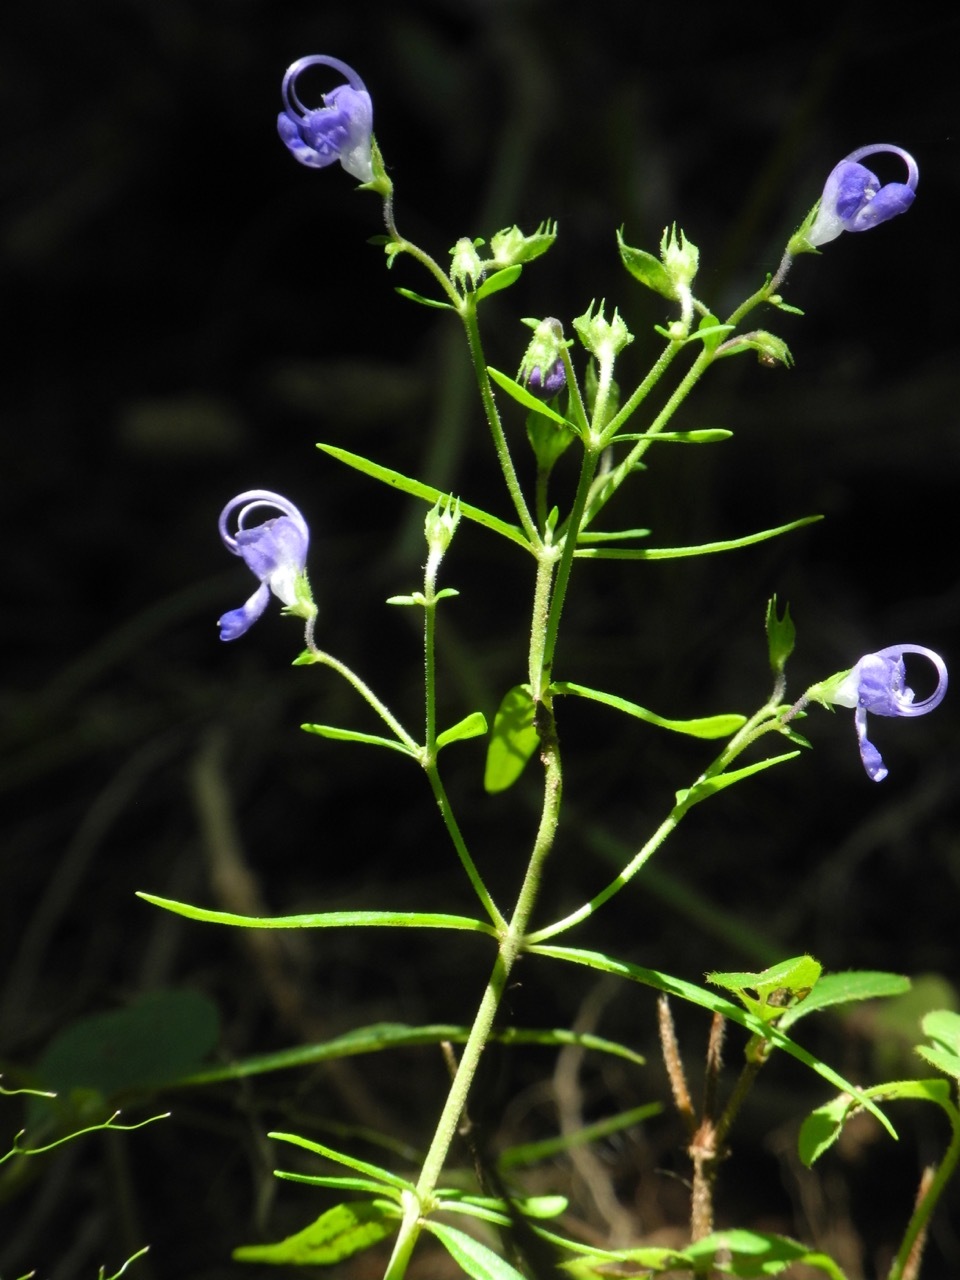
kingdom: Plantae
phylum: Tracheophyta
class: Magnoliopsida
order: Lamiales
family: Lamiaceae
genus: Trichostema
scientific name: Trichostema setaceum
